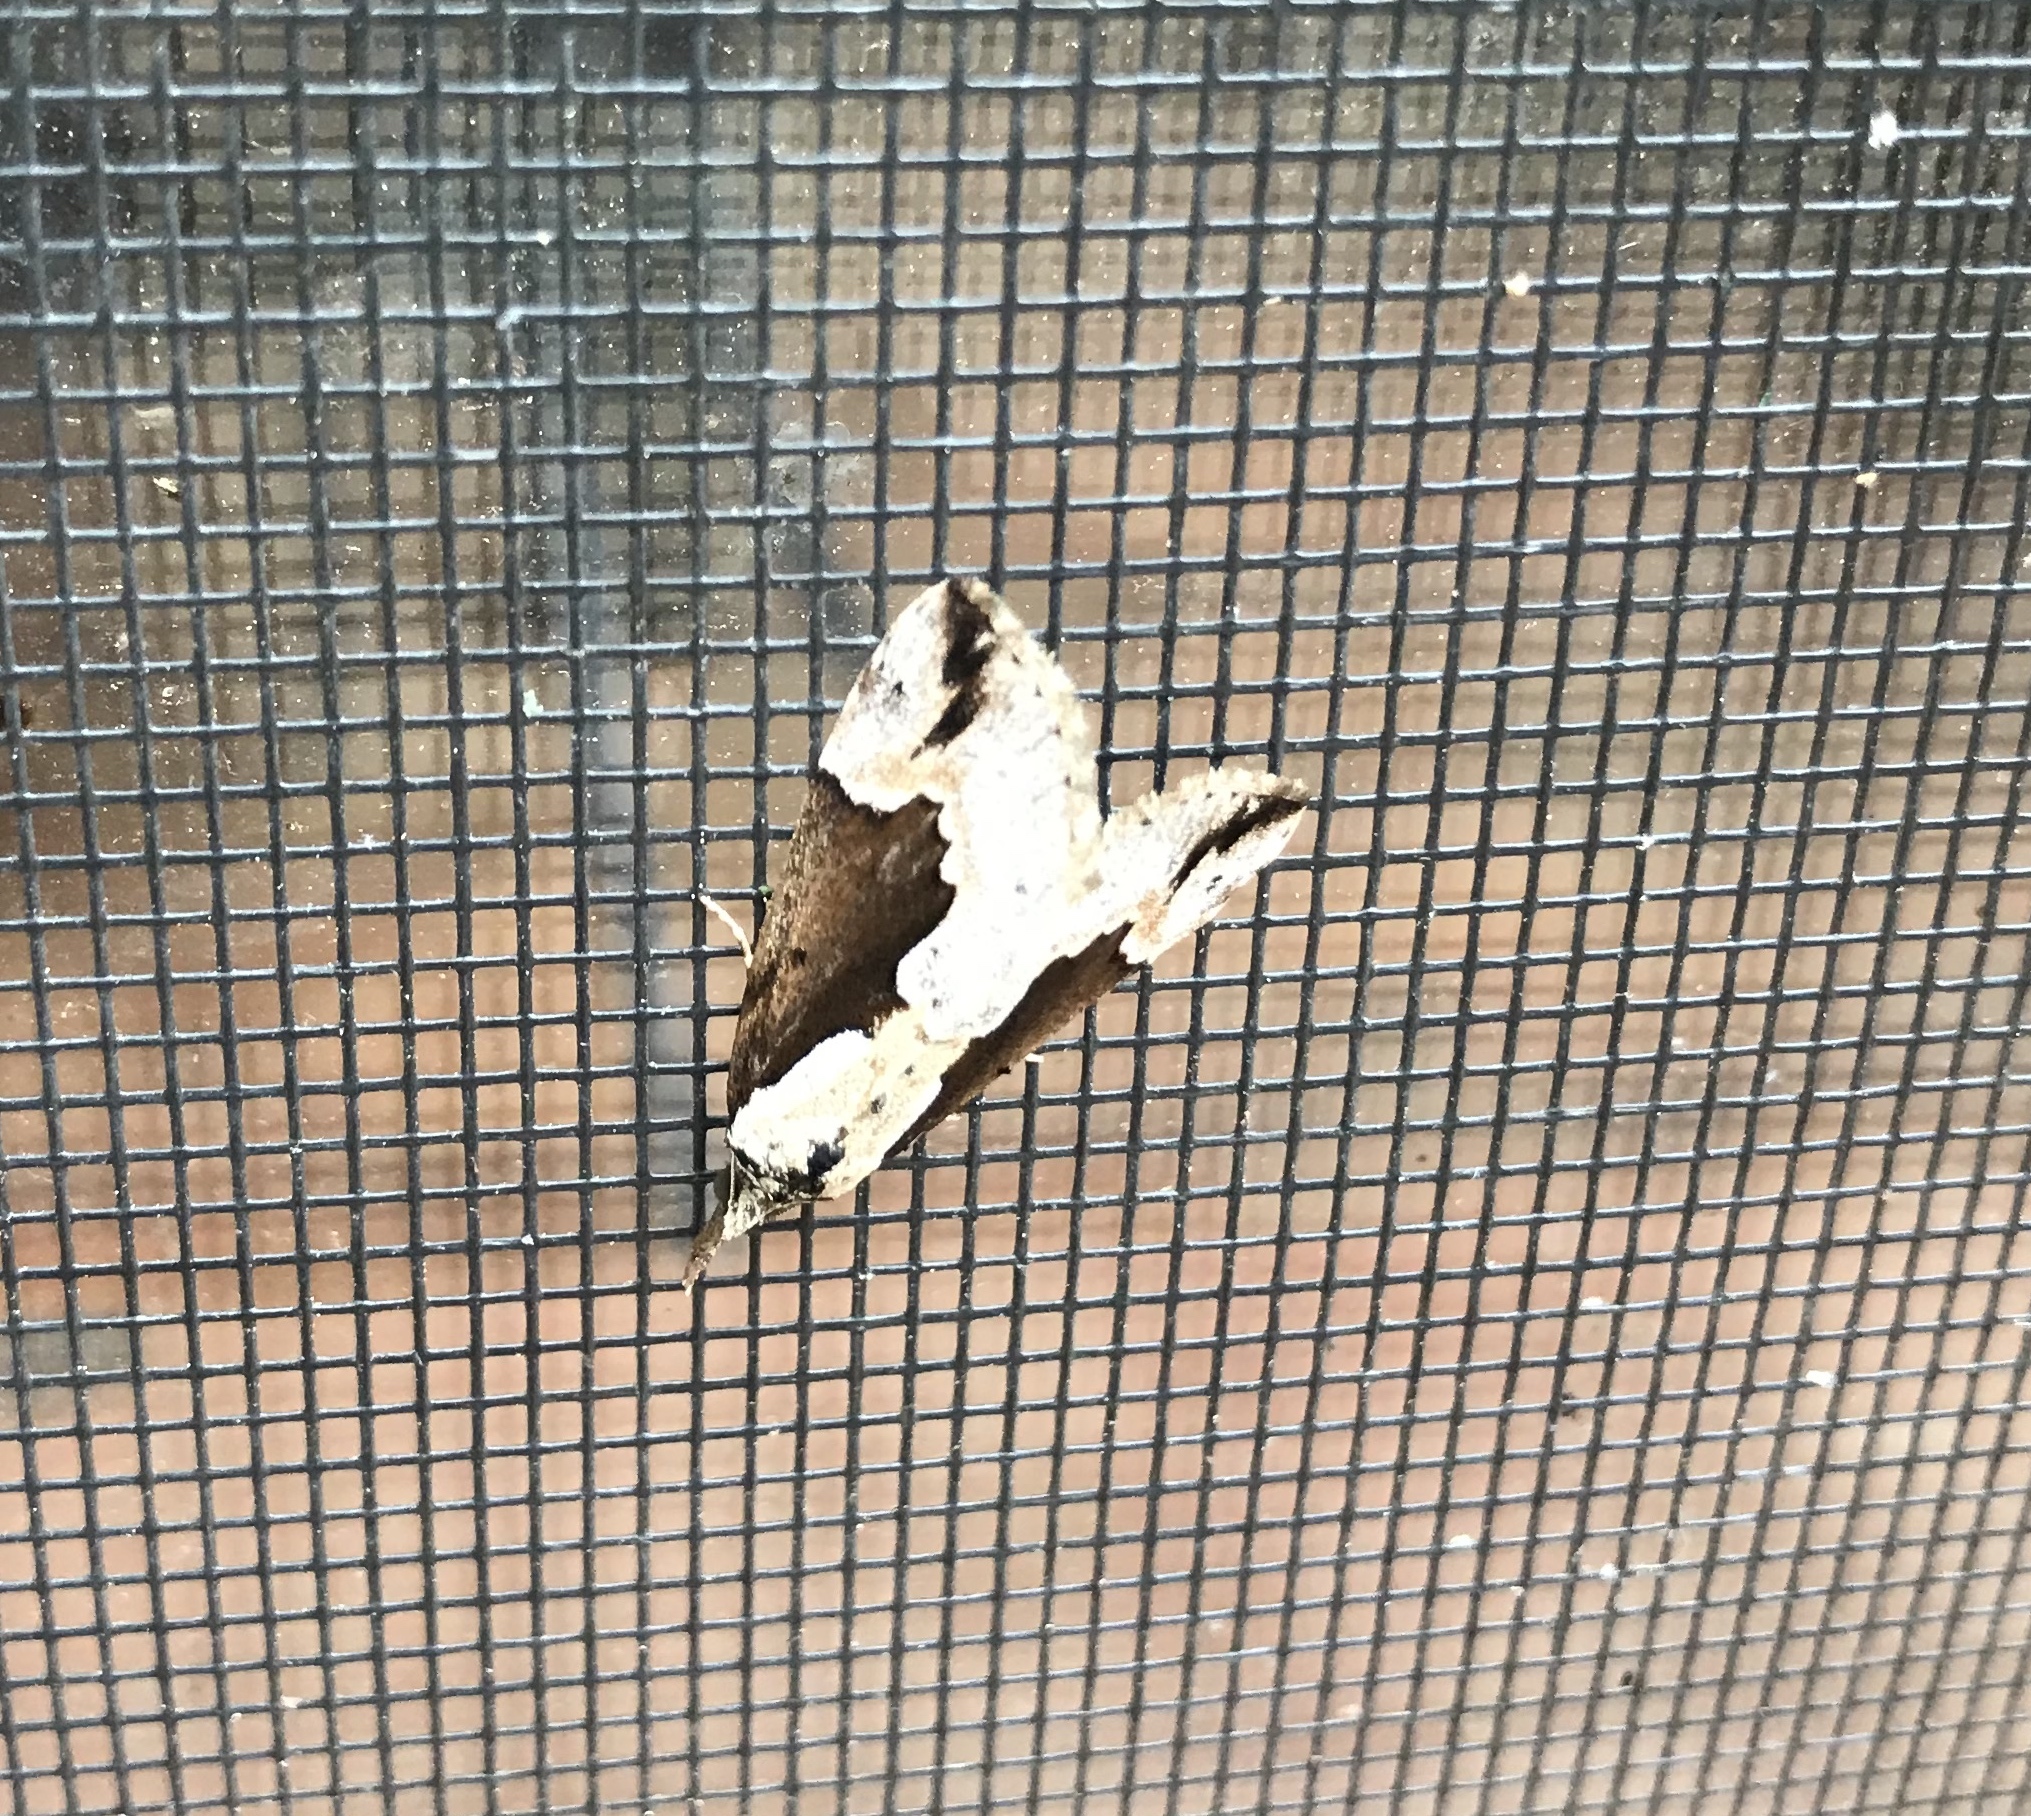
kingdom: Animalia
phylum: Arthropoda
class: Insecta
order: Lepidoptera
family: Erebidae
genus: Hypena
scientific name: Hypena baltimoralis
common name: Baltimore snout
